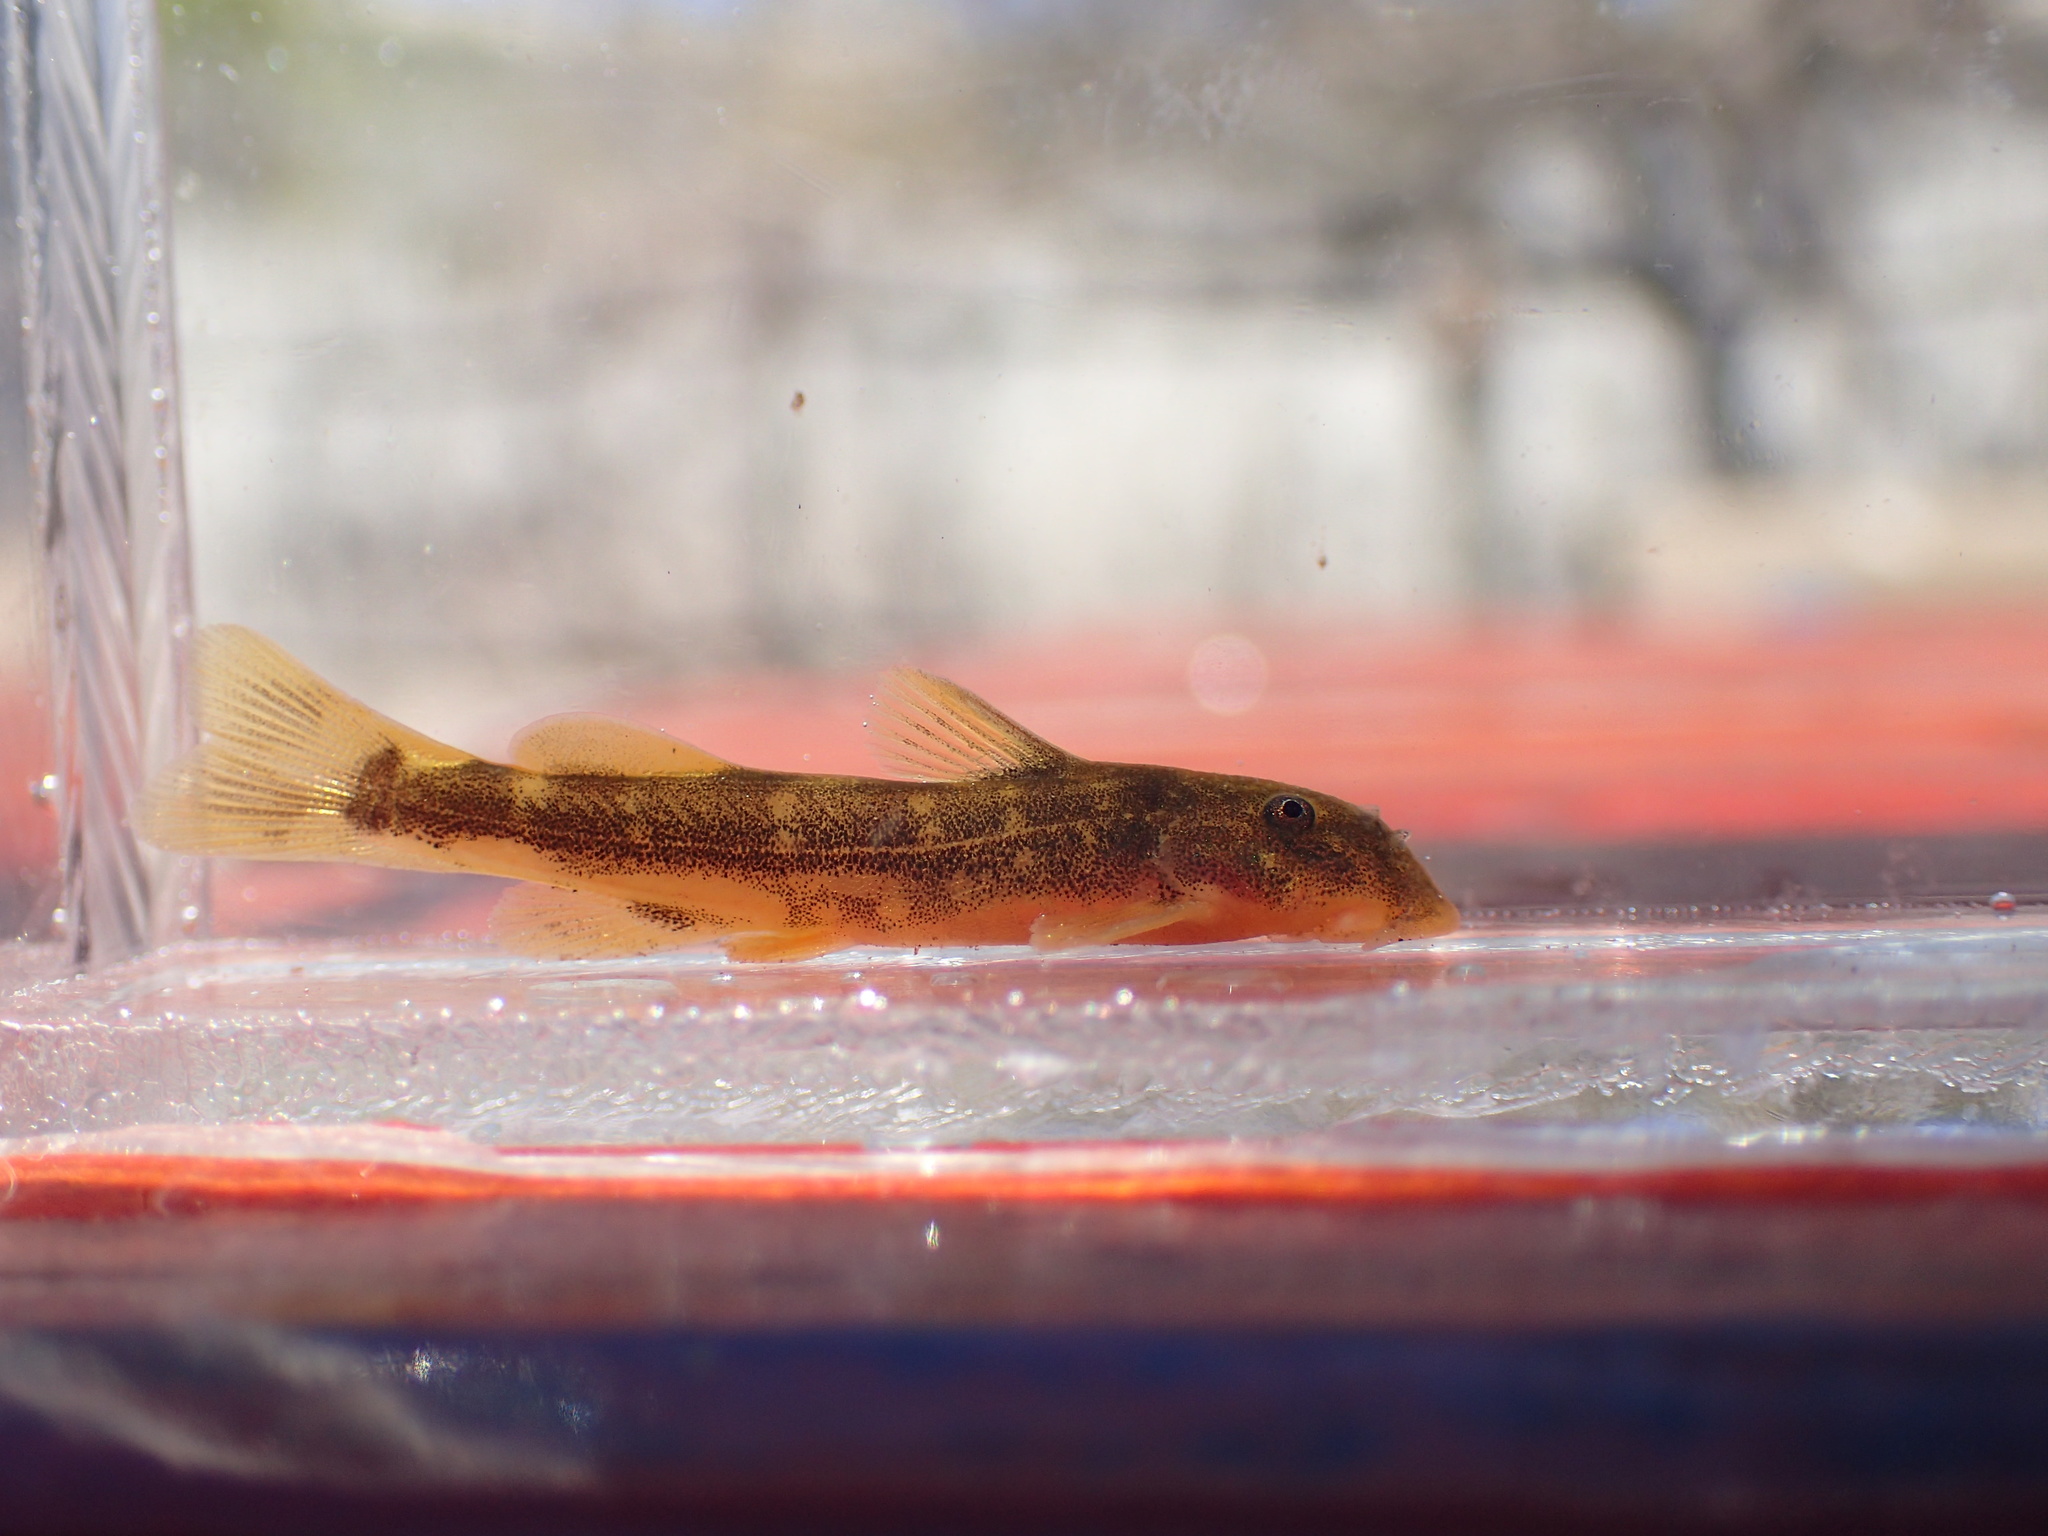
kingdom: Animalia
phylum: Chordata
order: Siluriformes
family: Mochokidae
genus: Chiloglanis
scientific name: Chiloglanis pretoriae
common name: Shortspine catlet
